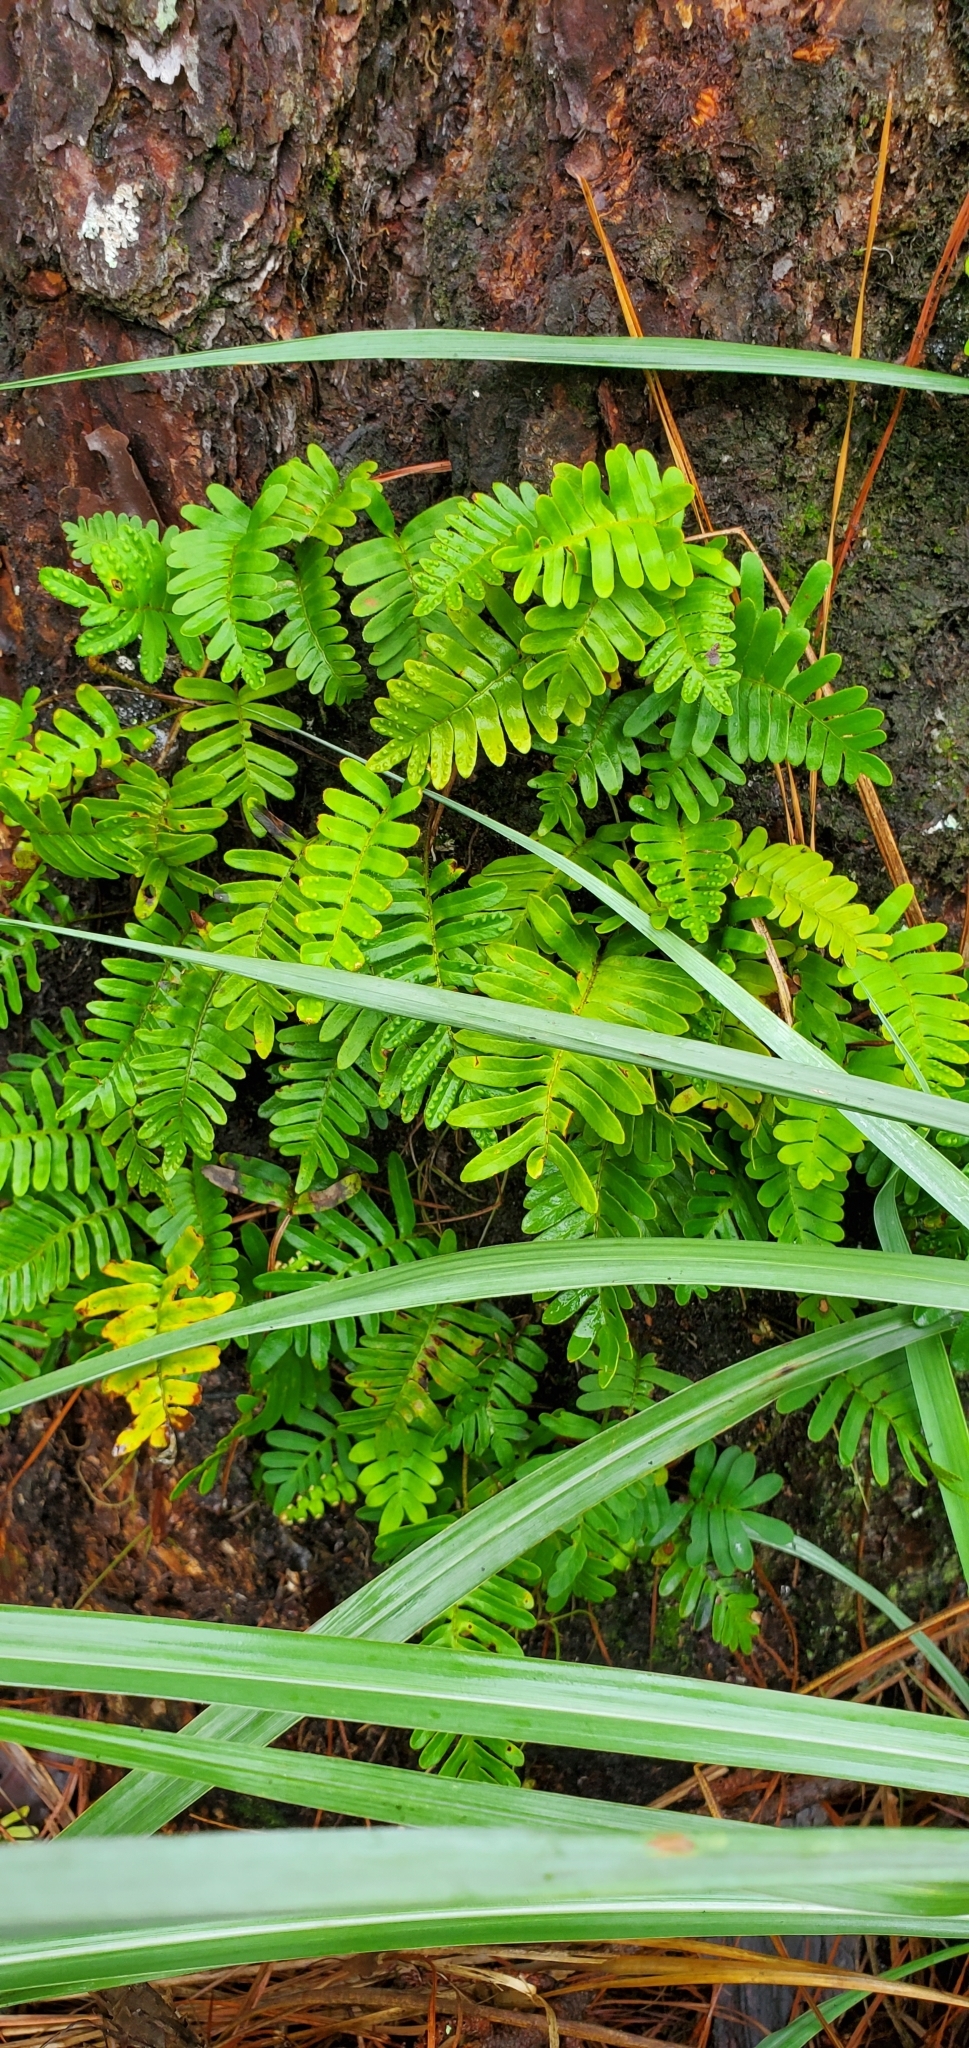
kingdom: Plantae
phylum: Tracheophyta
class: Polypodiopsida
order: Polypodiales
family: Polypodiaceae
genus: Pleopeltis
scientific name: Pleopeltis michauxiana
